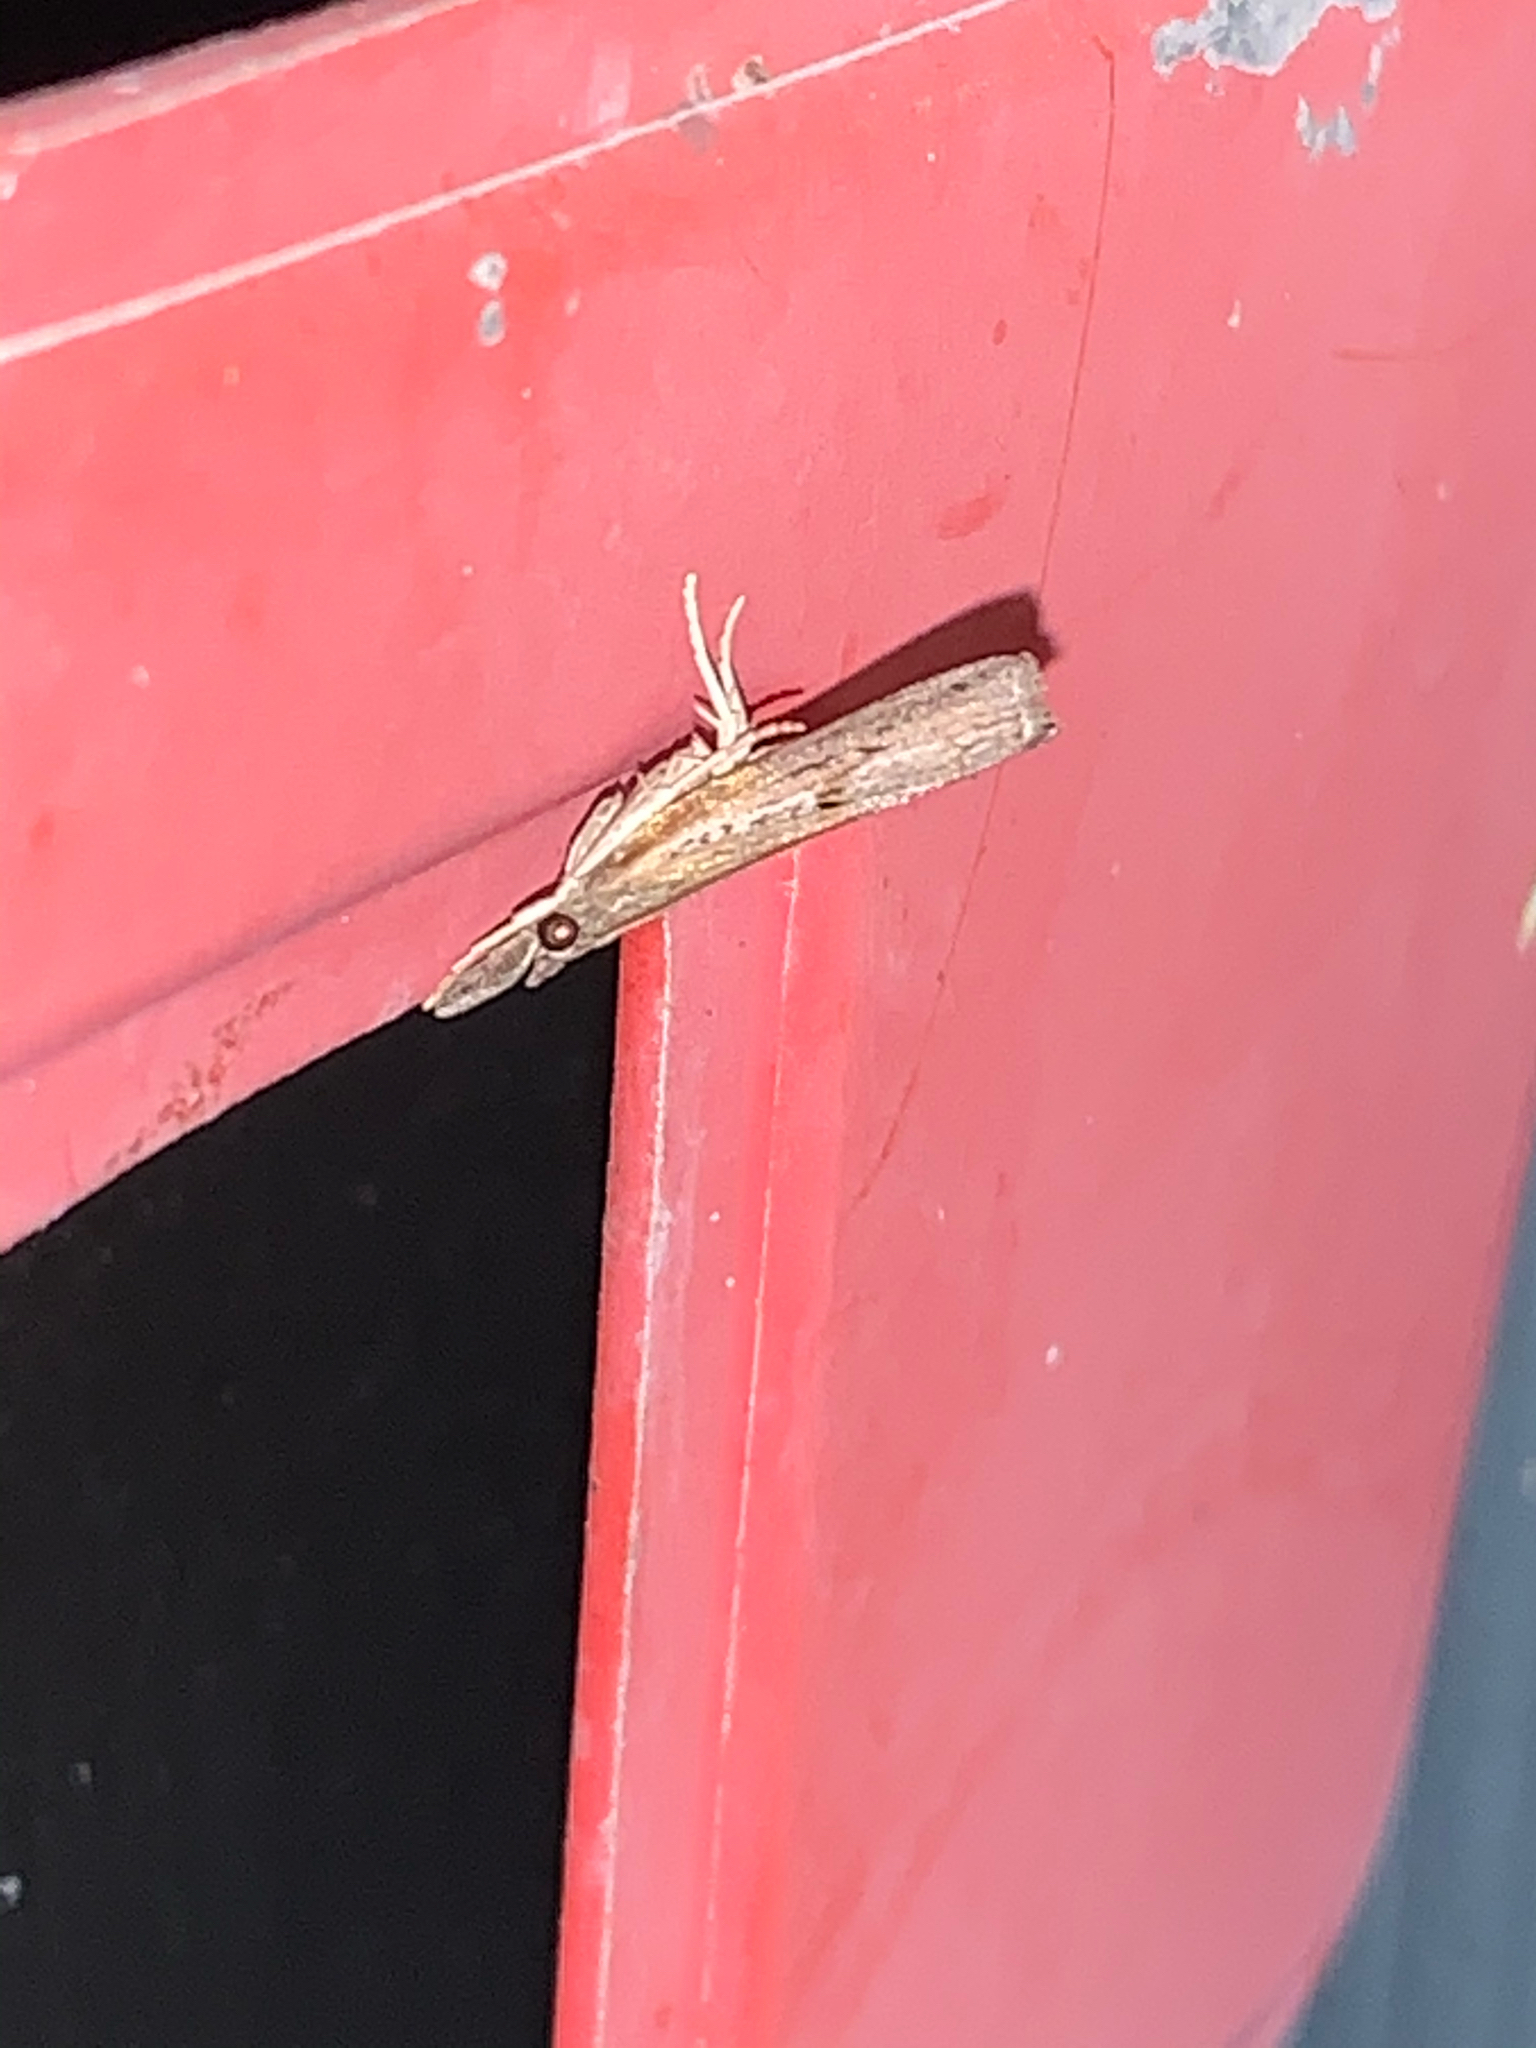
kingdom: Animalia
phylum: Arthropoda
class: Insecta
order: Lepidoptera
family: Crambidae
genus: Fissicrambus
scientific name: Fissicrambus mutabilis
